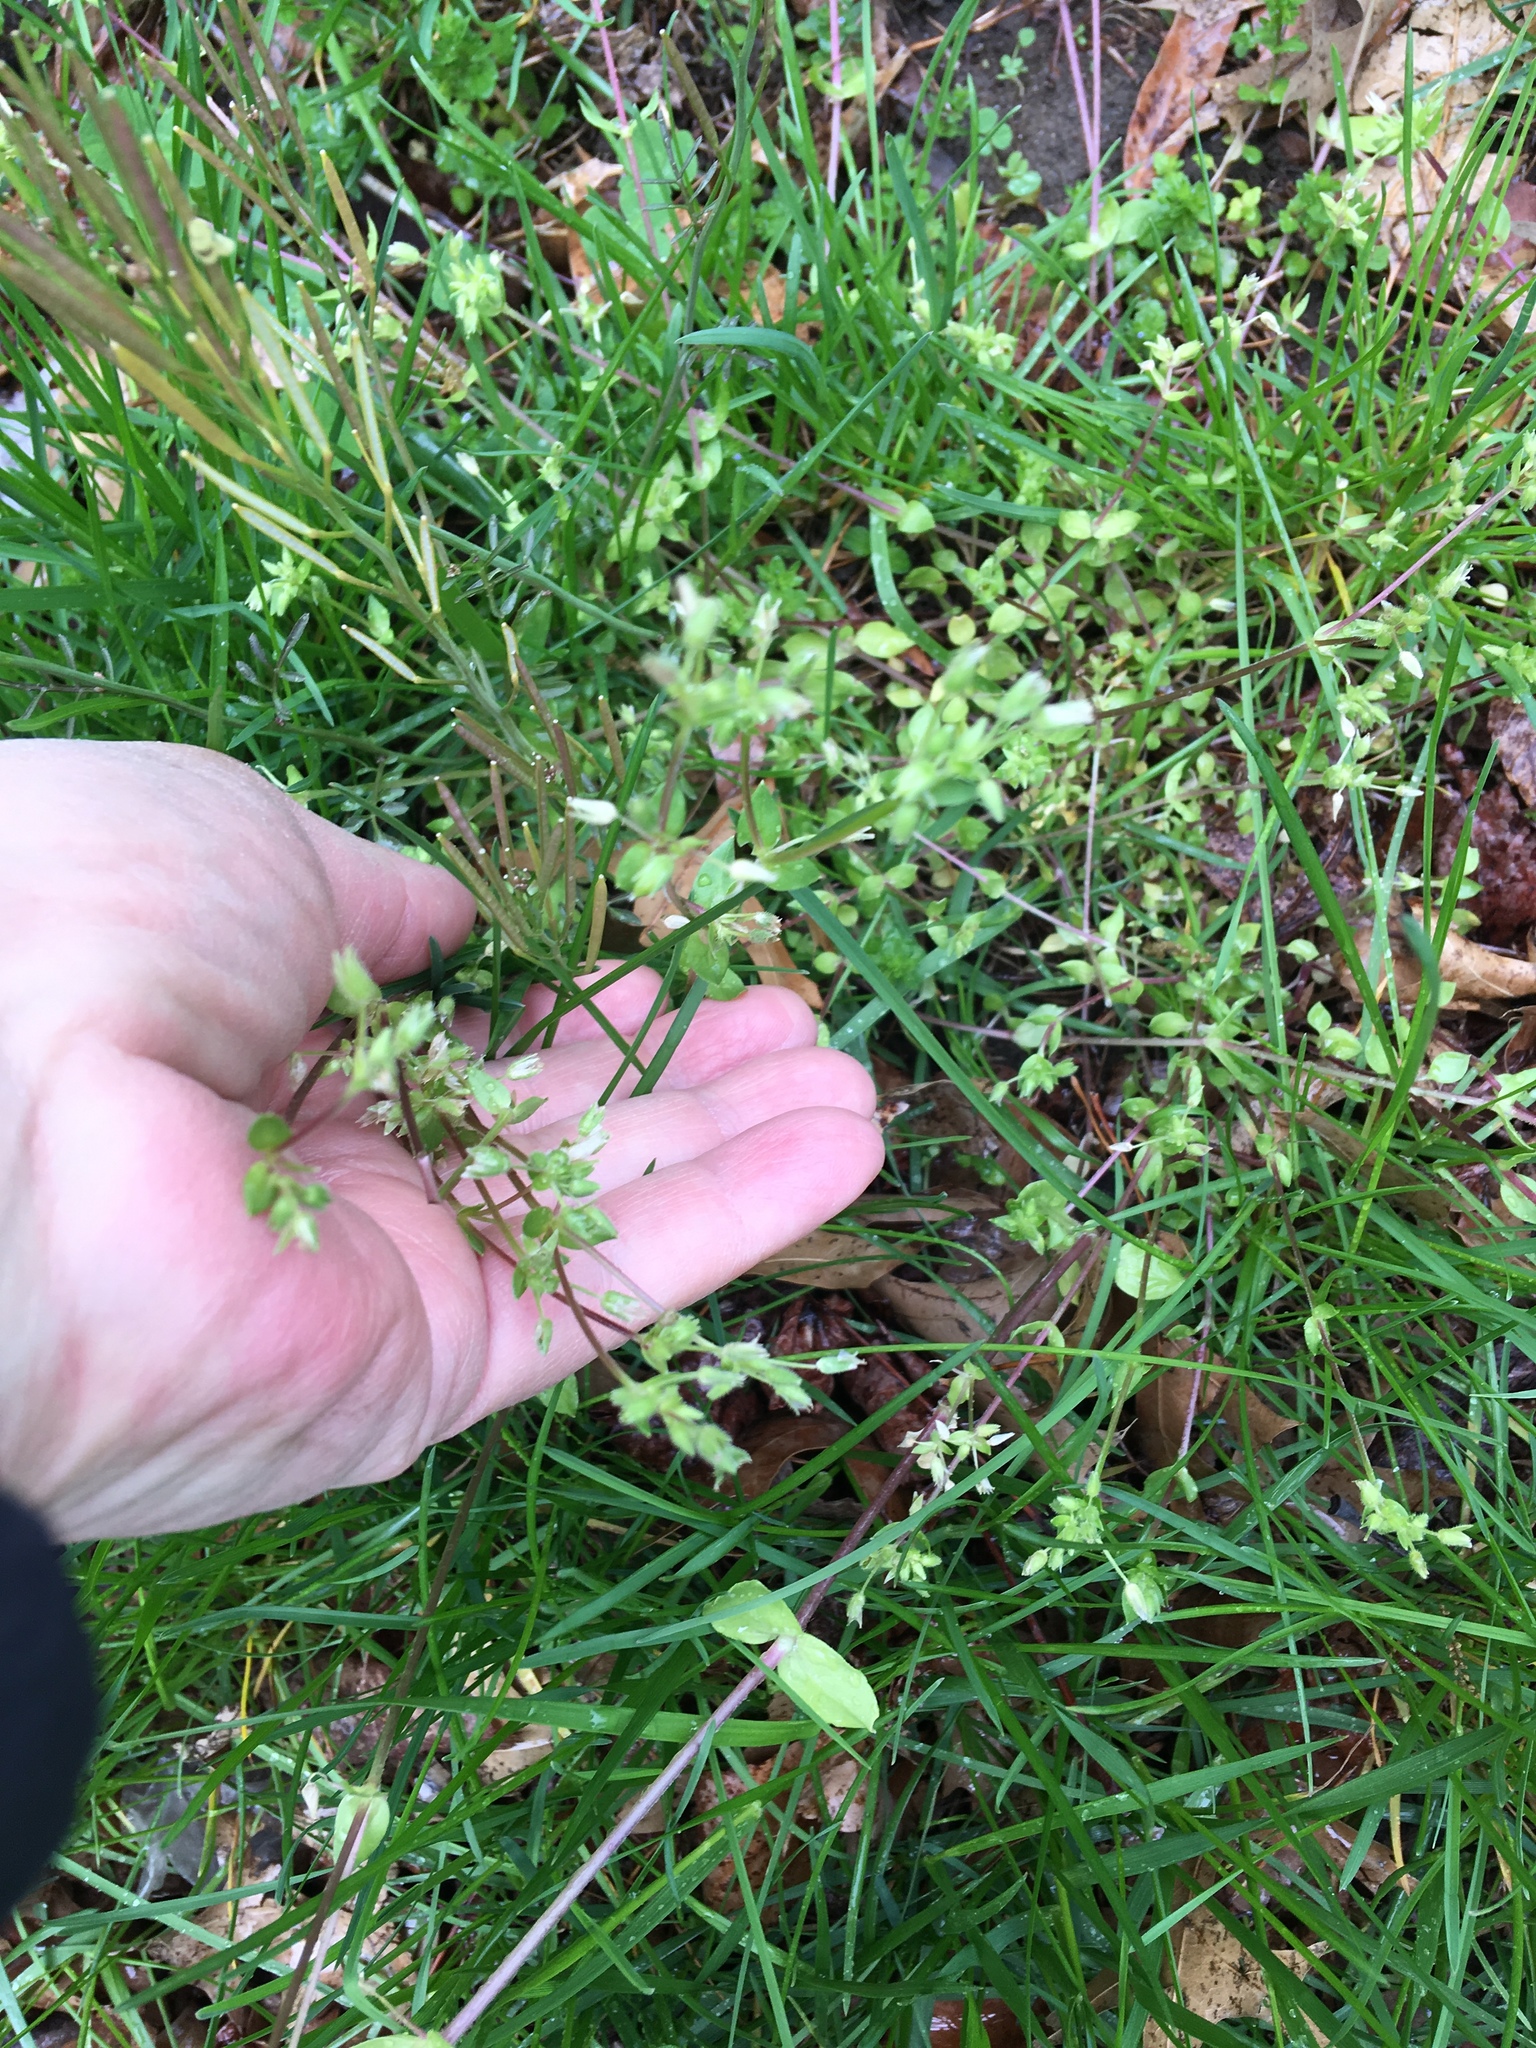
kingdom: Plantae
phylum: Tracheophyta
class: Magnoliopsida
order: Caryophyllales
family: Caryophyllaceae
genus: Stellaria
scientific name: Stellaria apetala
